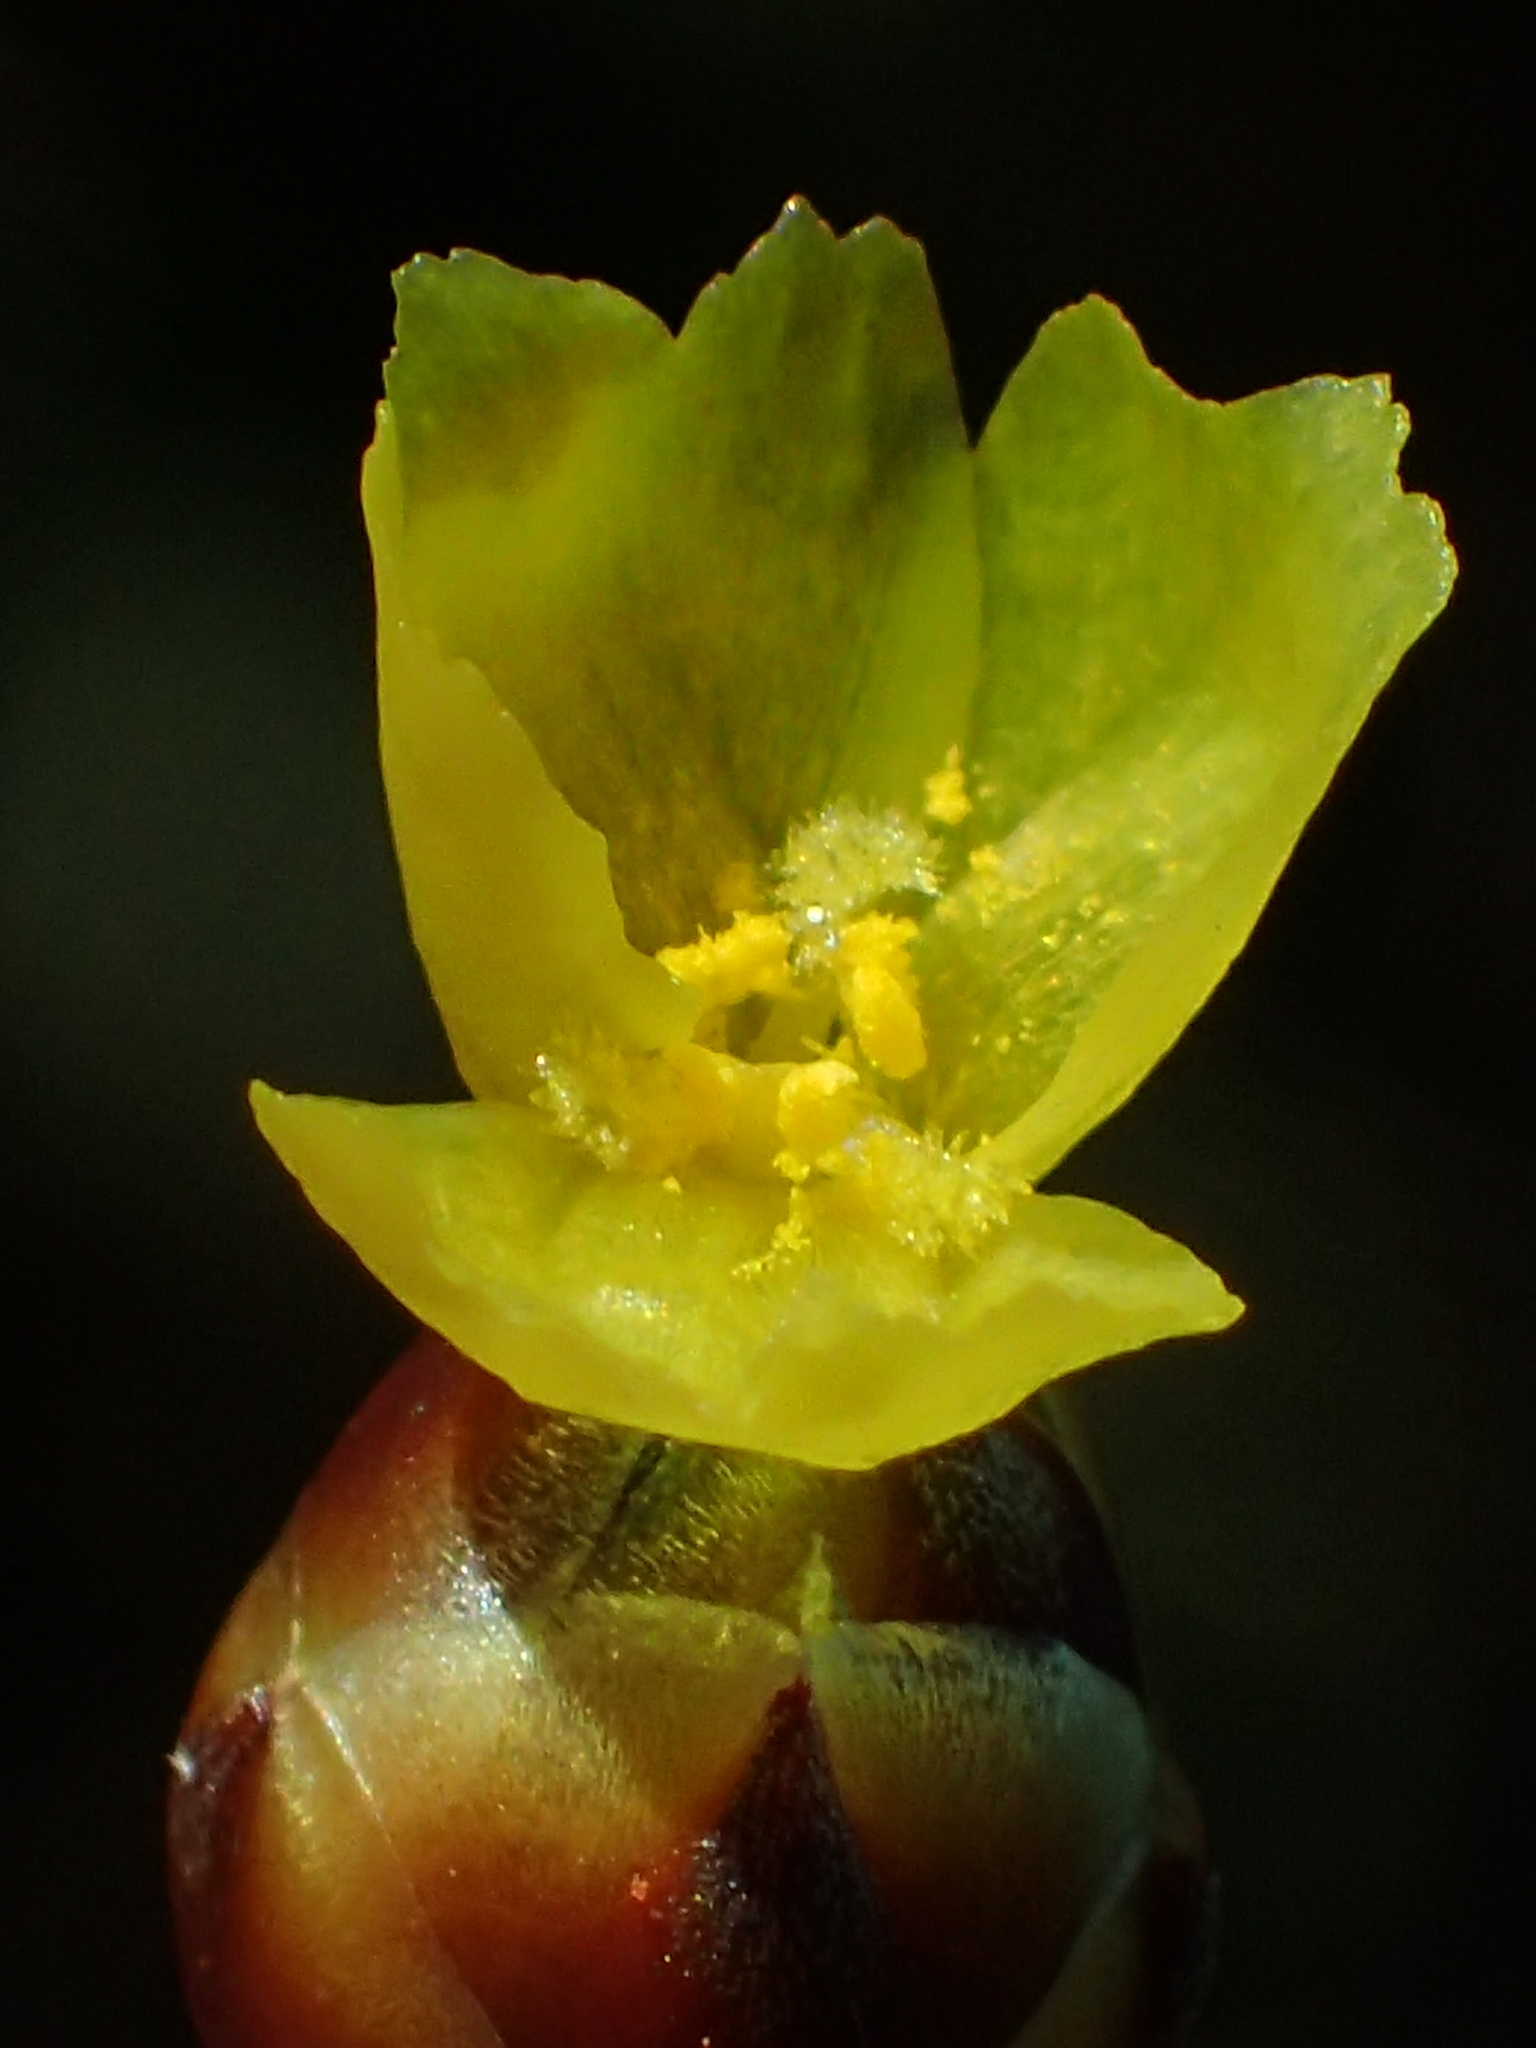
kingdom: Plantae
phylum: Tracheophyta
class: Liliopsida
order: Poales
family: Xyridaceae
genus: Xyris
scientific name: Xyris formosana
